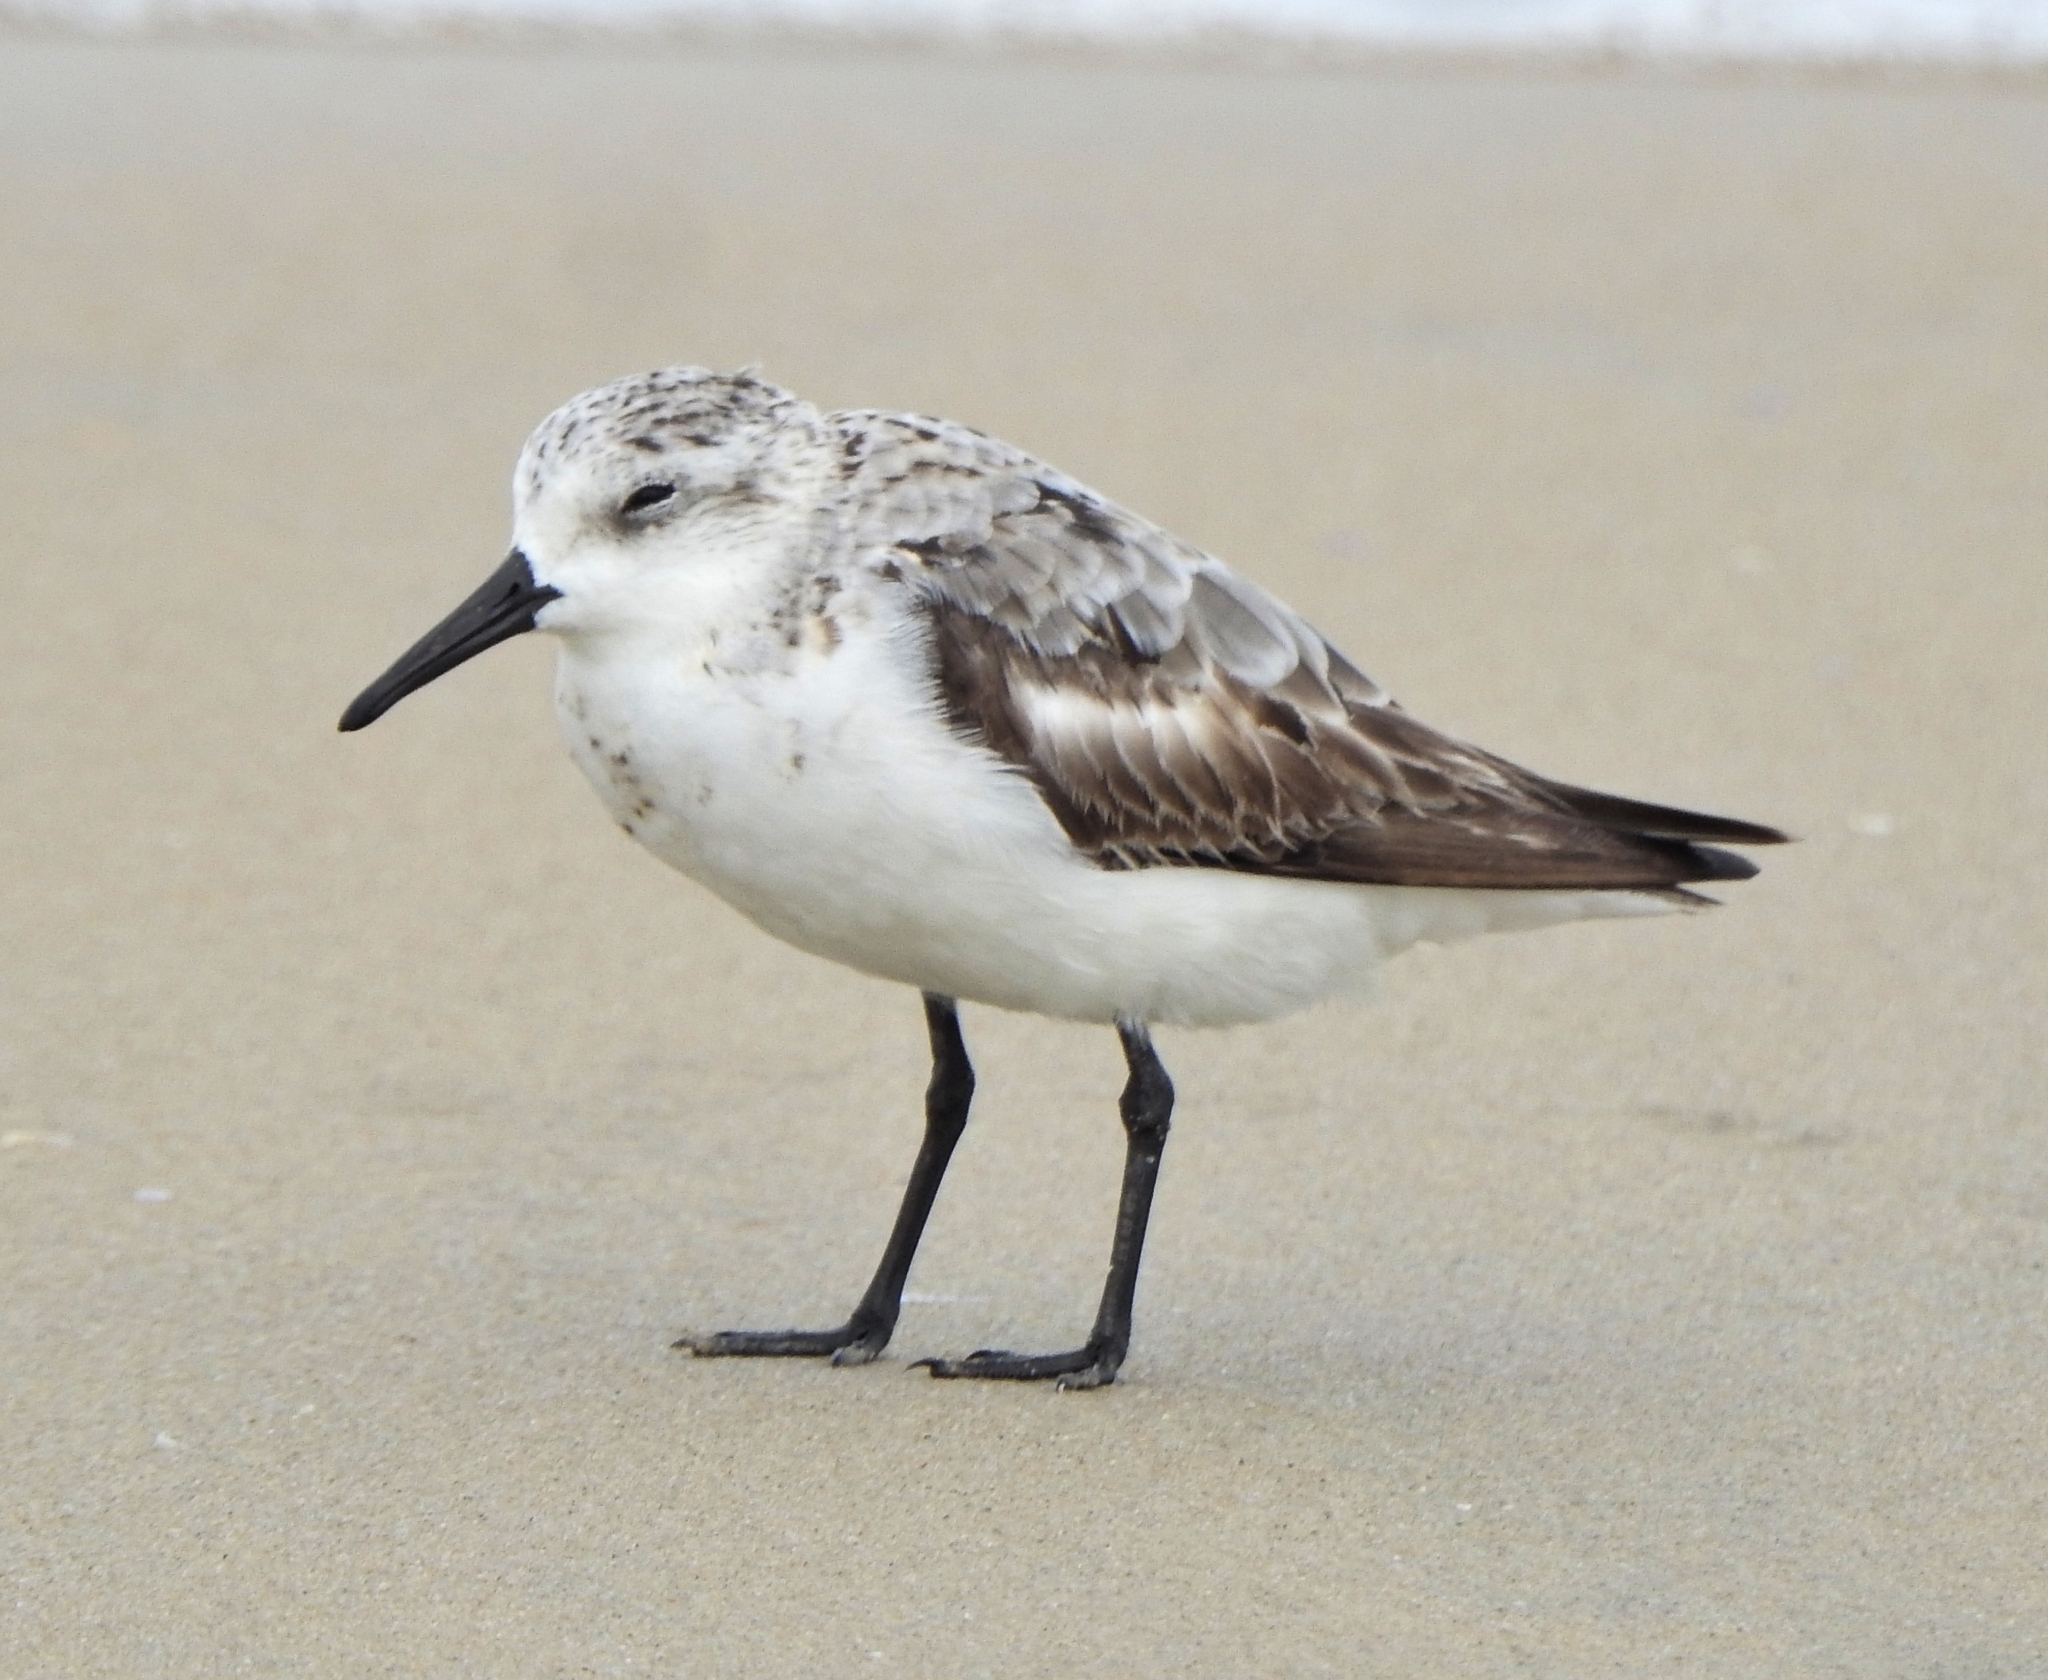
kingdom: Animalia
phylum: Chordata
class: Aves
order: Charadriiformes
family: Scolopacidae
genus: Calidris
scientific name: Calidris alba
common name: Sanderling
